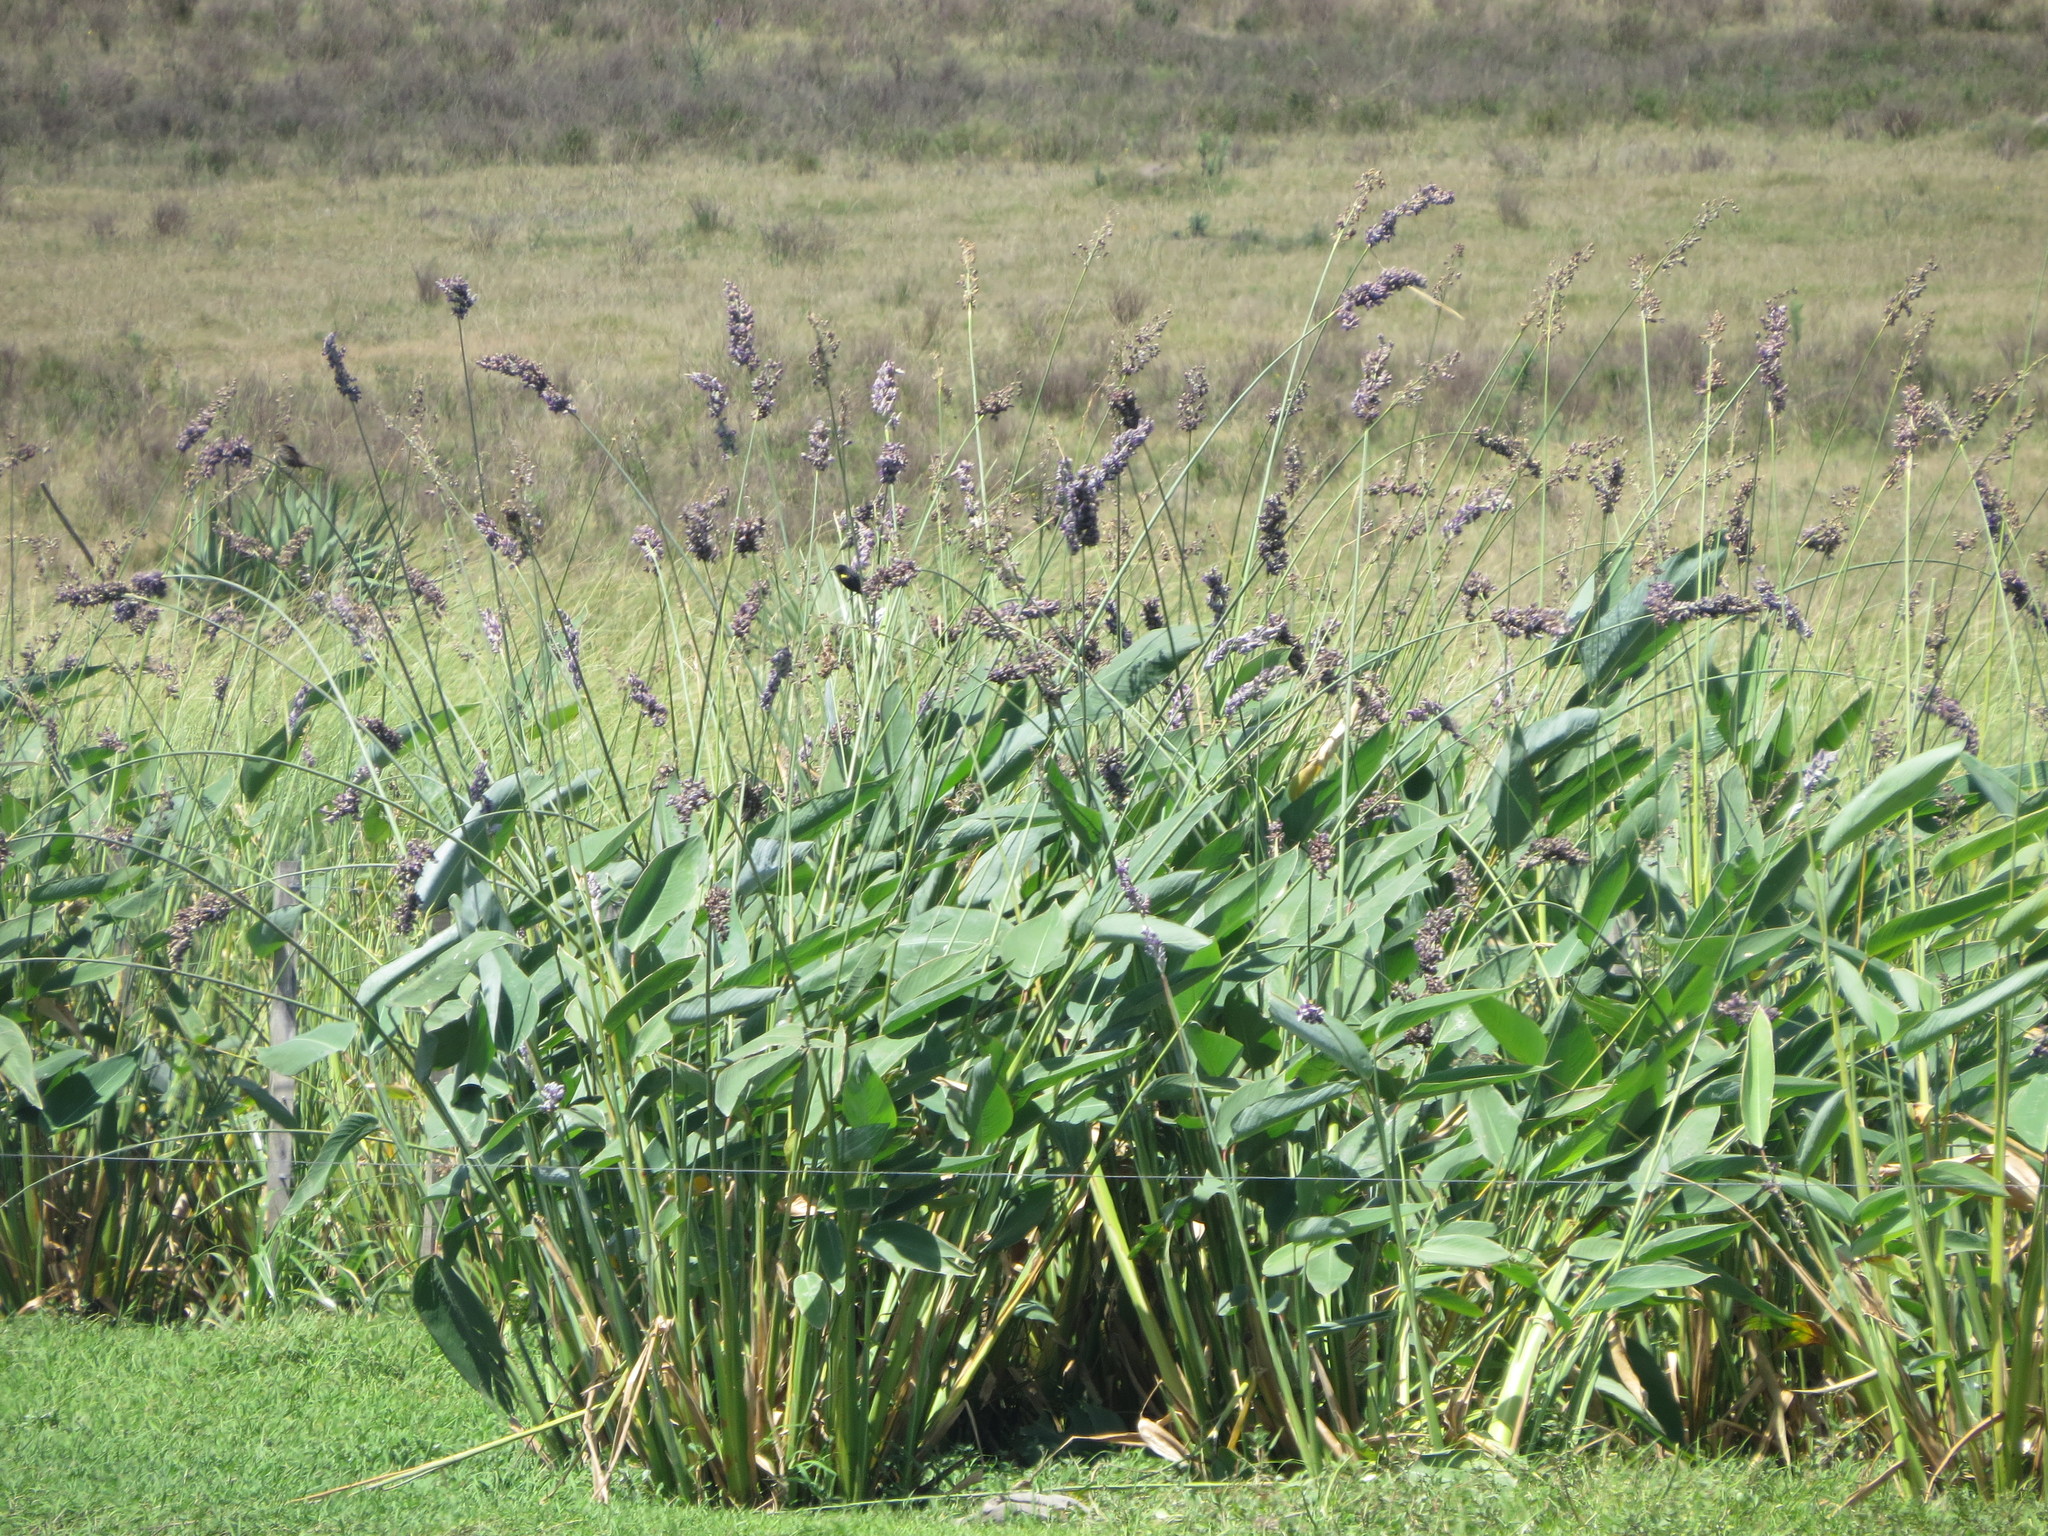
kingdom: Plantae
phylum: Tracheophyta
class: Liliopsida
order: Zingiberales
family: Marantaceae
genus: Thalia
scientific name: Thalia multiflora
